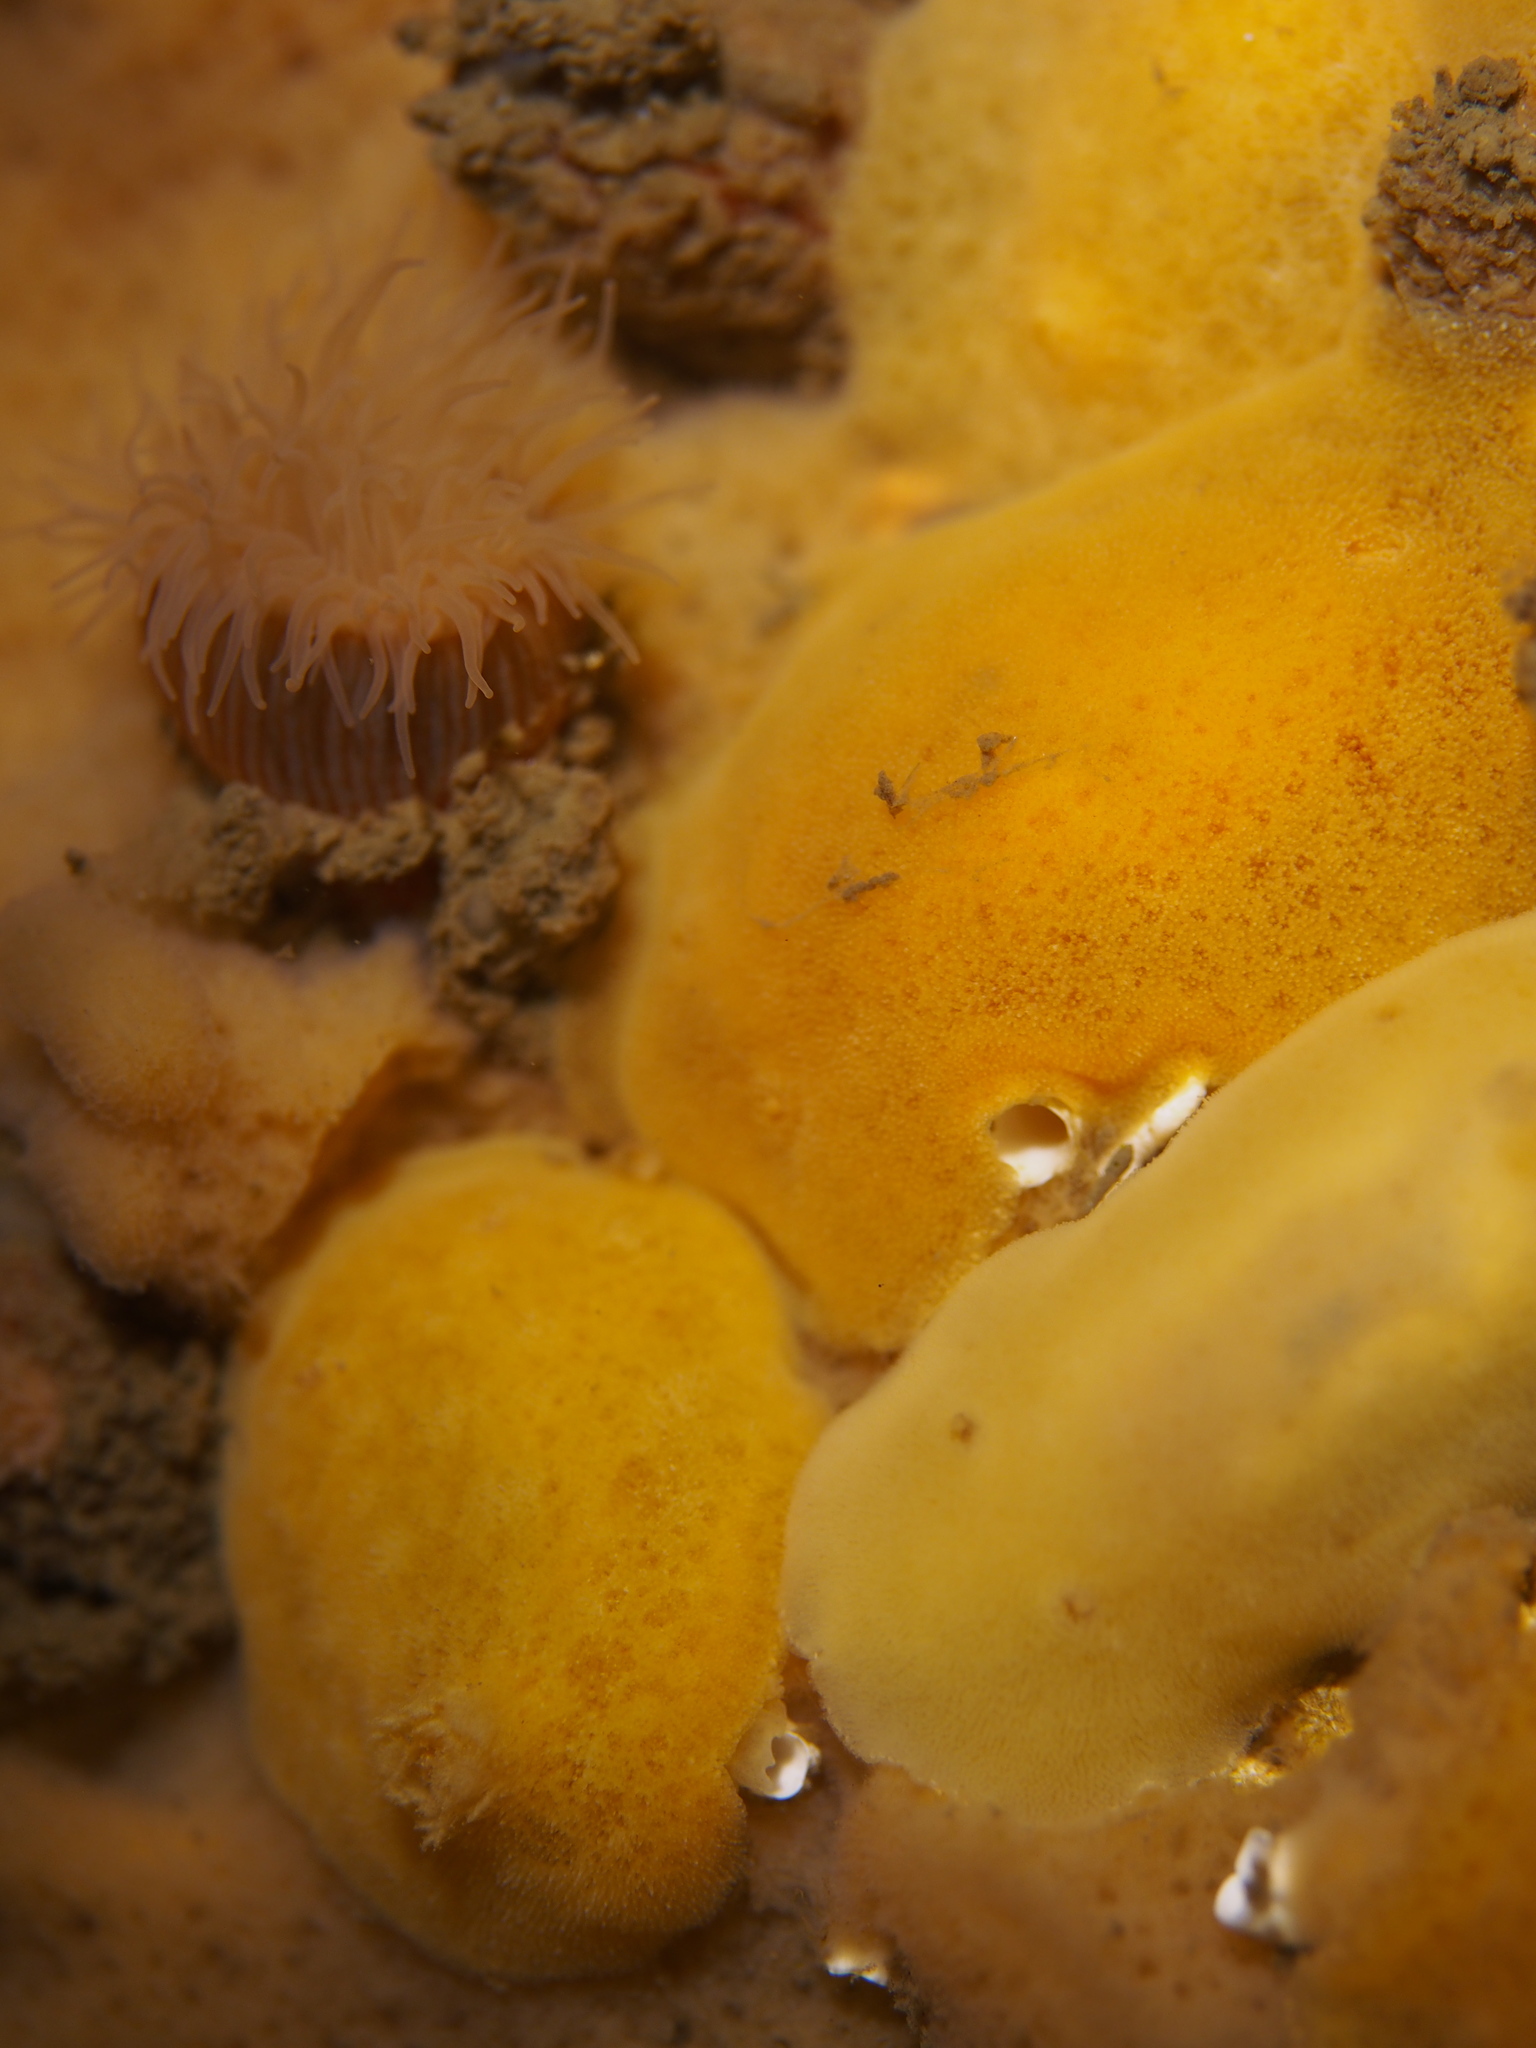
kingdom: Animalia
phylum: Mollusca
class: Gastropoda
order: Nudibranchia
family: Discodorididae
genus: Jorunna
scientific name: Jorunna tomentosa
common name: Grey sea slug
